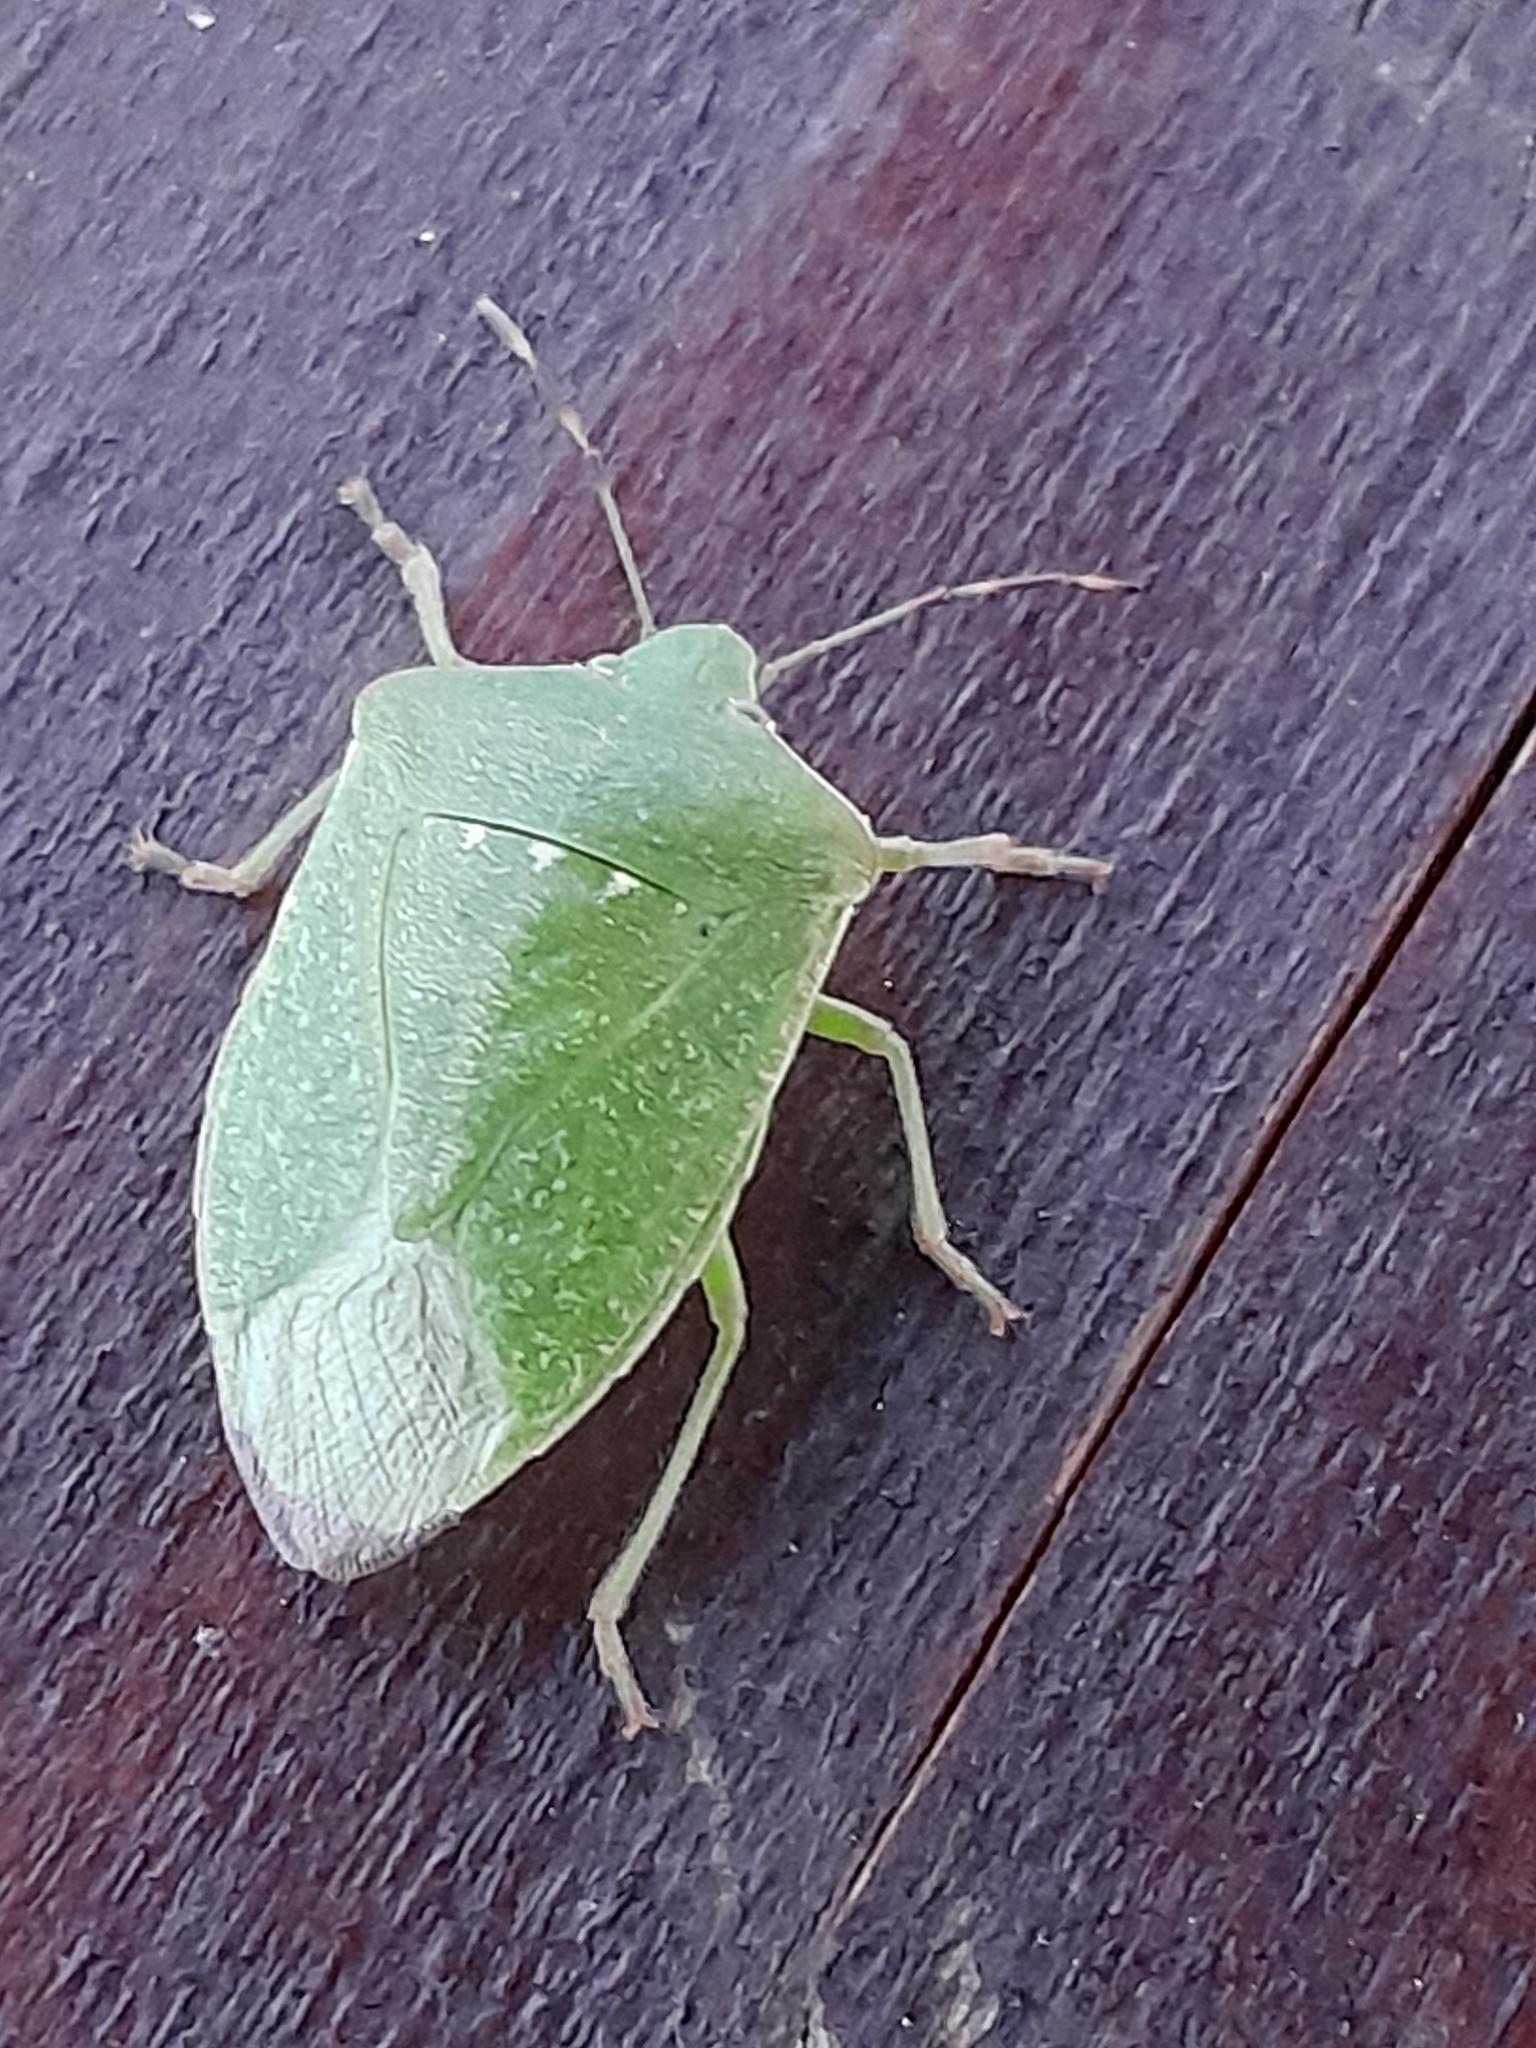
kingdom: Animalia
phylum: Arthropoda
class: Insecta
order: Hemiptera
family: Pentatomidae
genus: Nezara
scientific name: Nezara viridula
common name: Southern green stink bug
